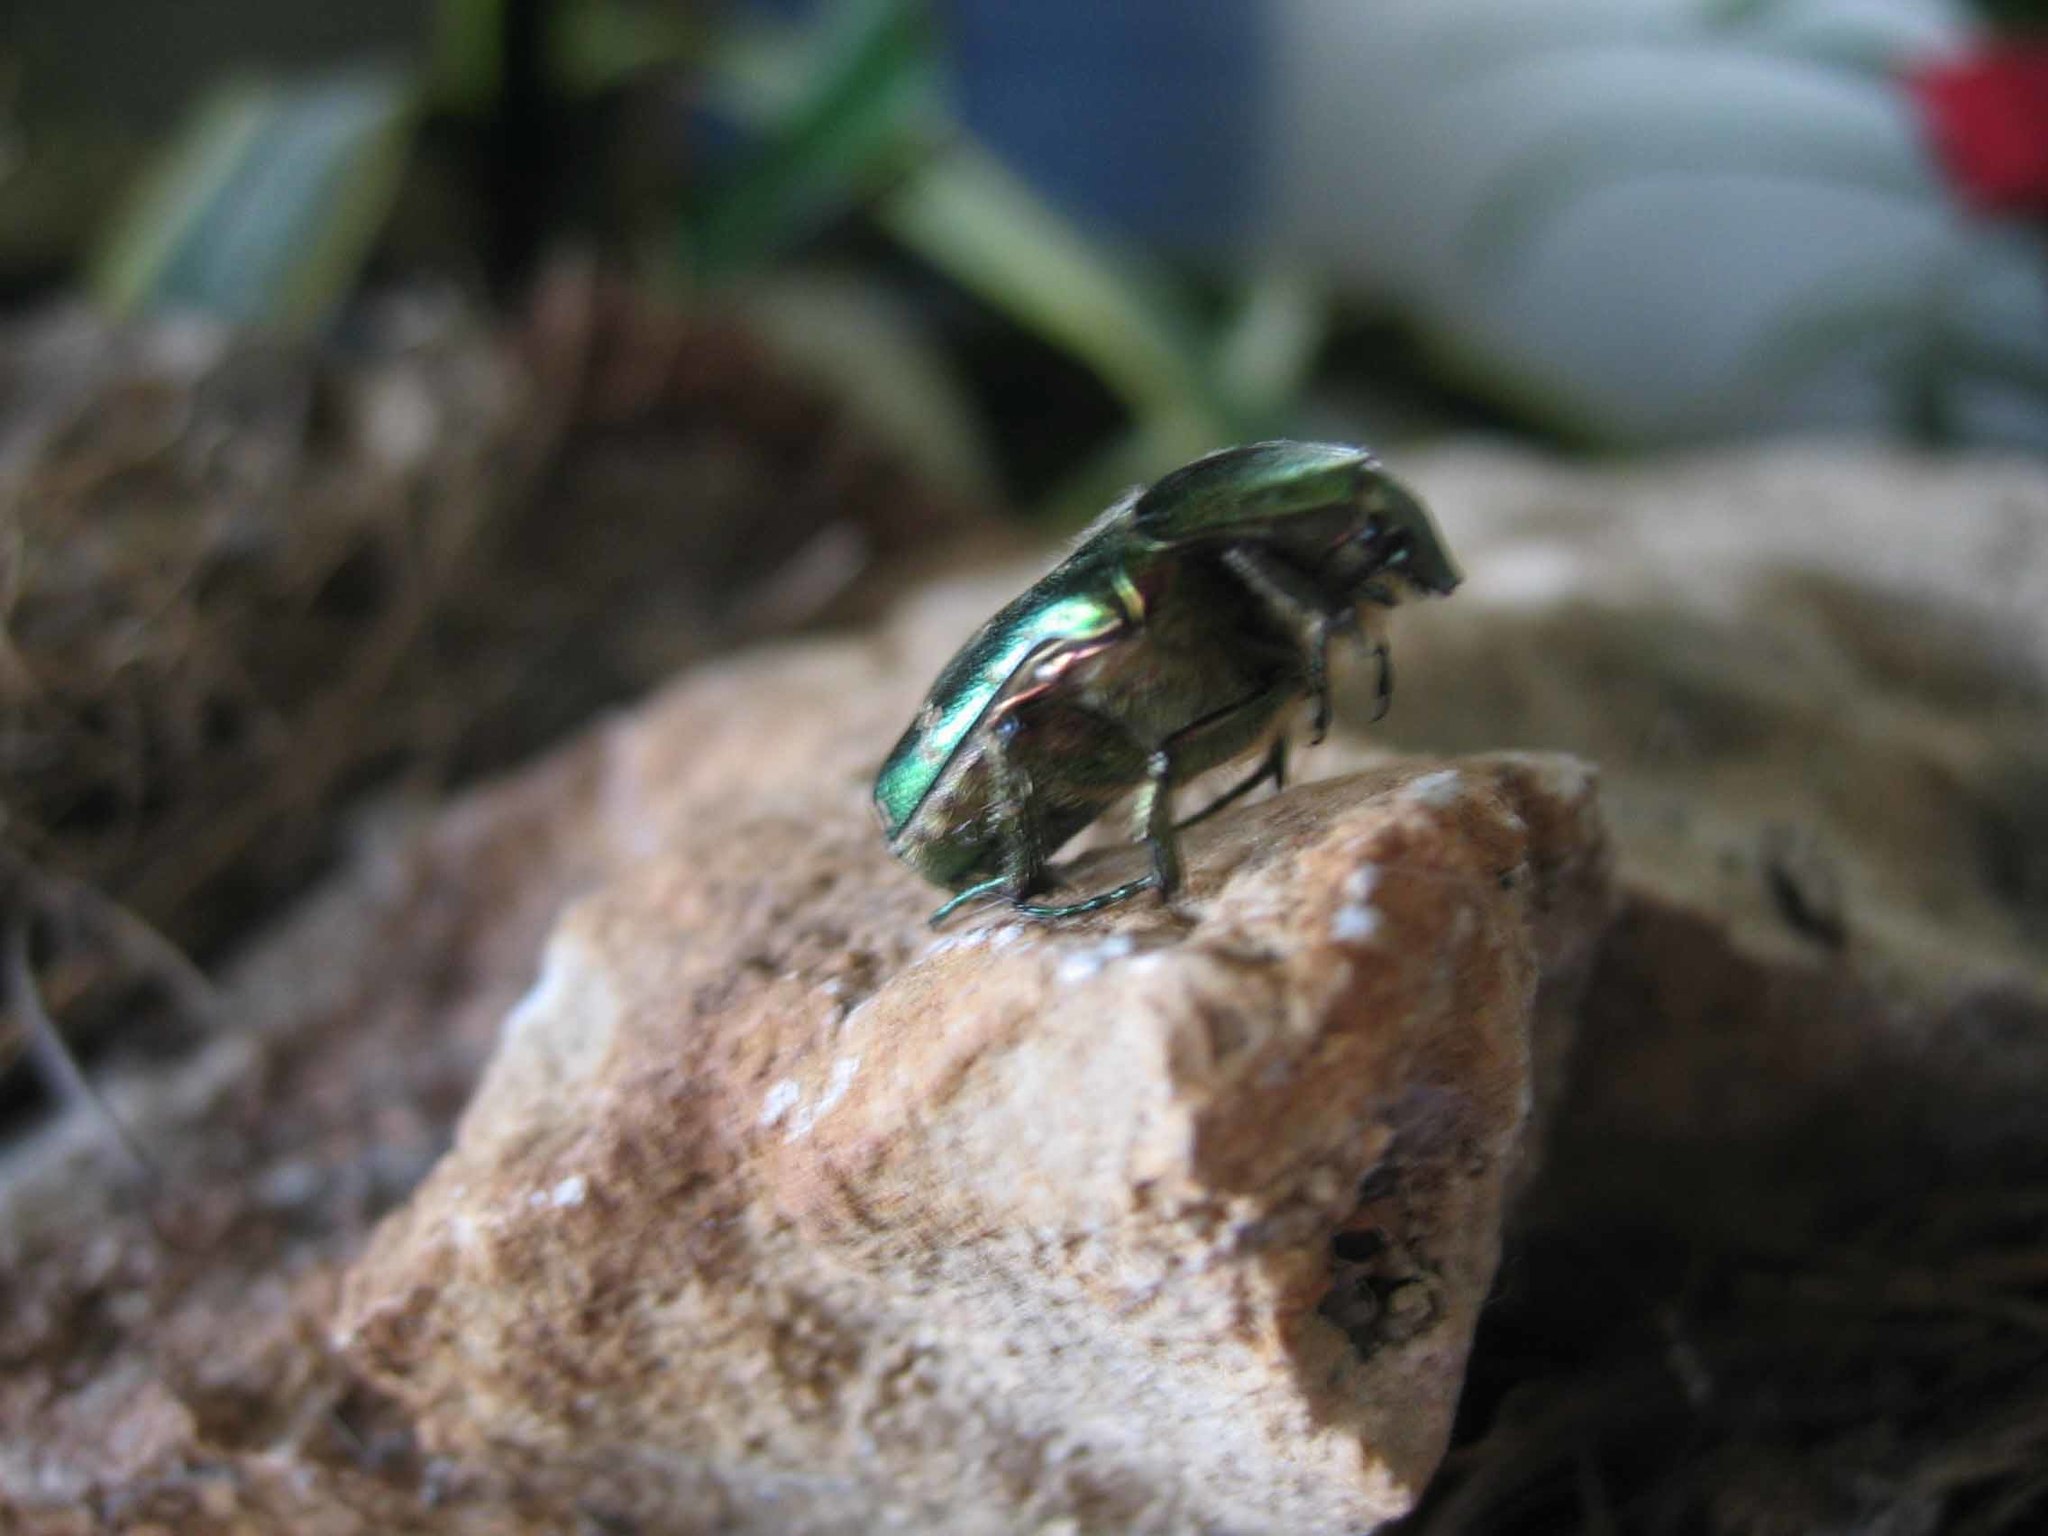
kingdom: Animalia
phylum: Arthropoda
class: Insecta
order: Coleoptera
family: Scarabaeidae
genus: Cetonia
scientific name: Cetonia aurata
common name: Rose chafer
